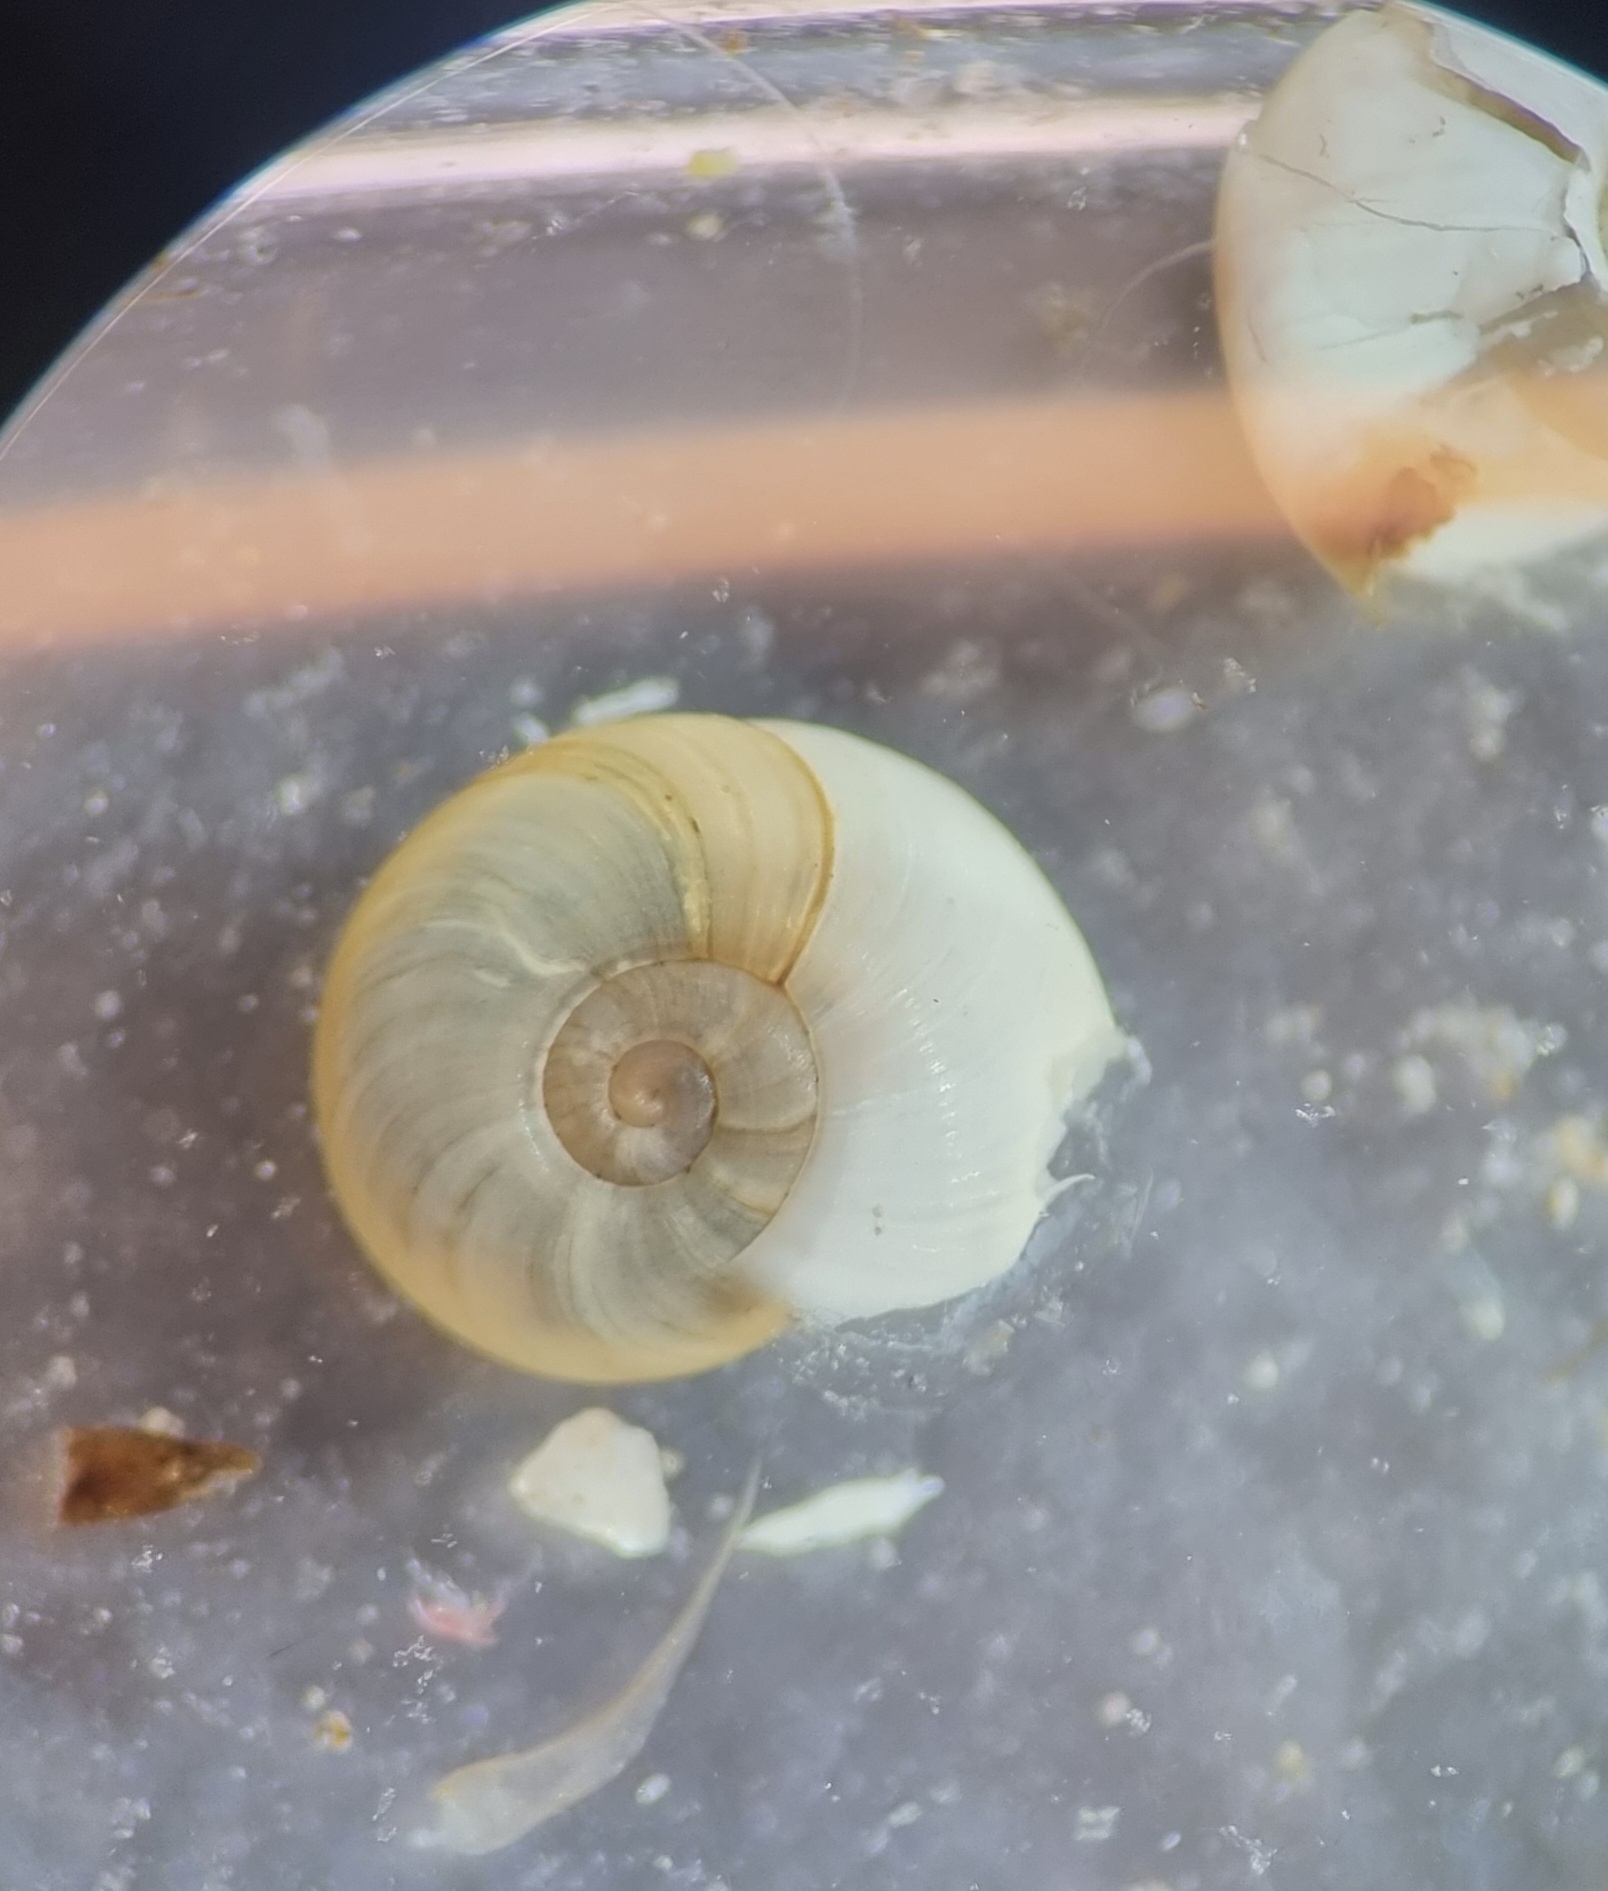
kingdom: Animalia
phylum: Mollusca
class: Gastropoda
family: Planorbidae
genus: Segmentina
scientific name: Segmentina nitida
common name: The shining ram's-horn
